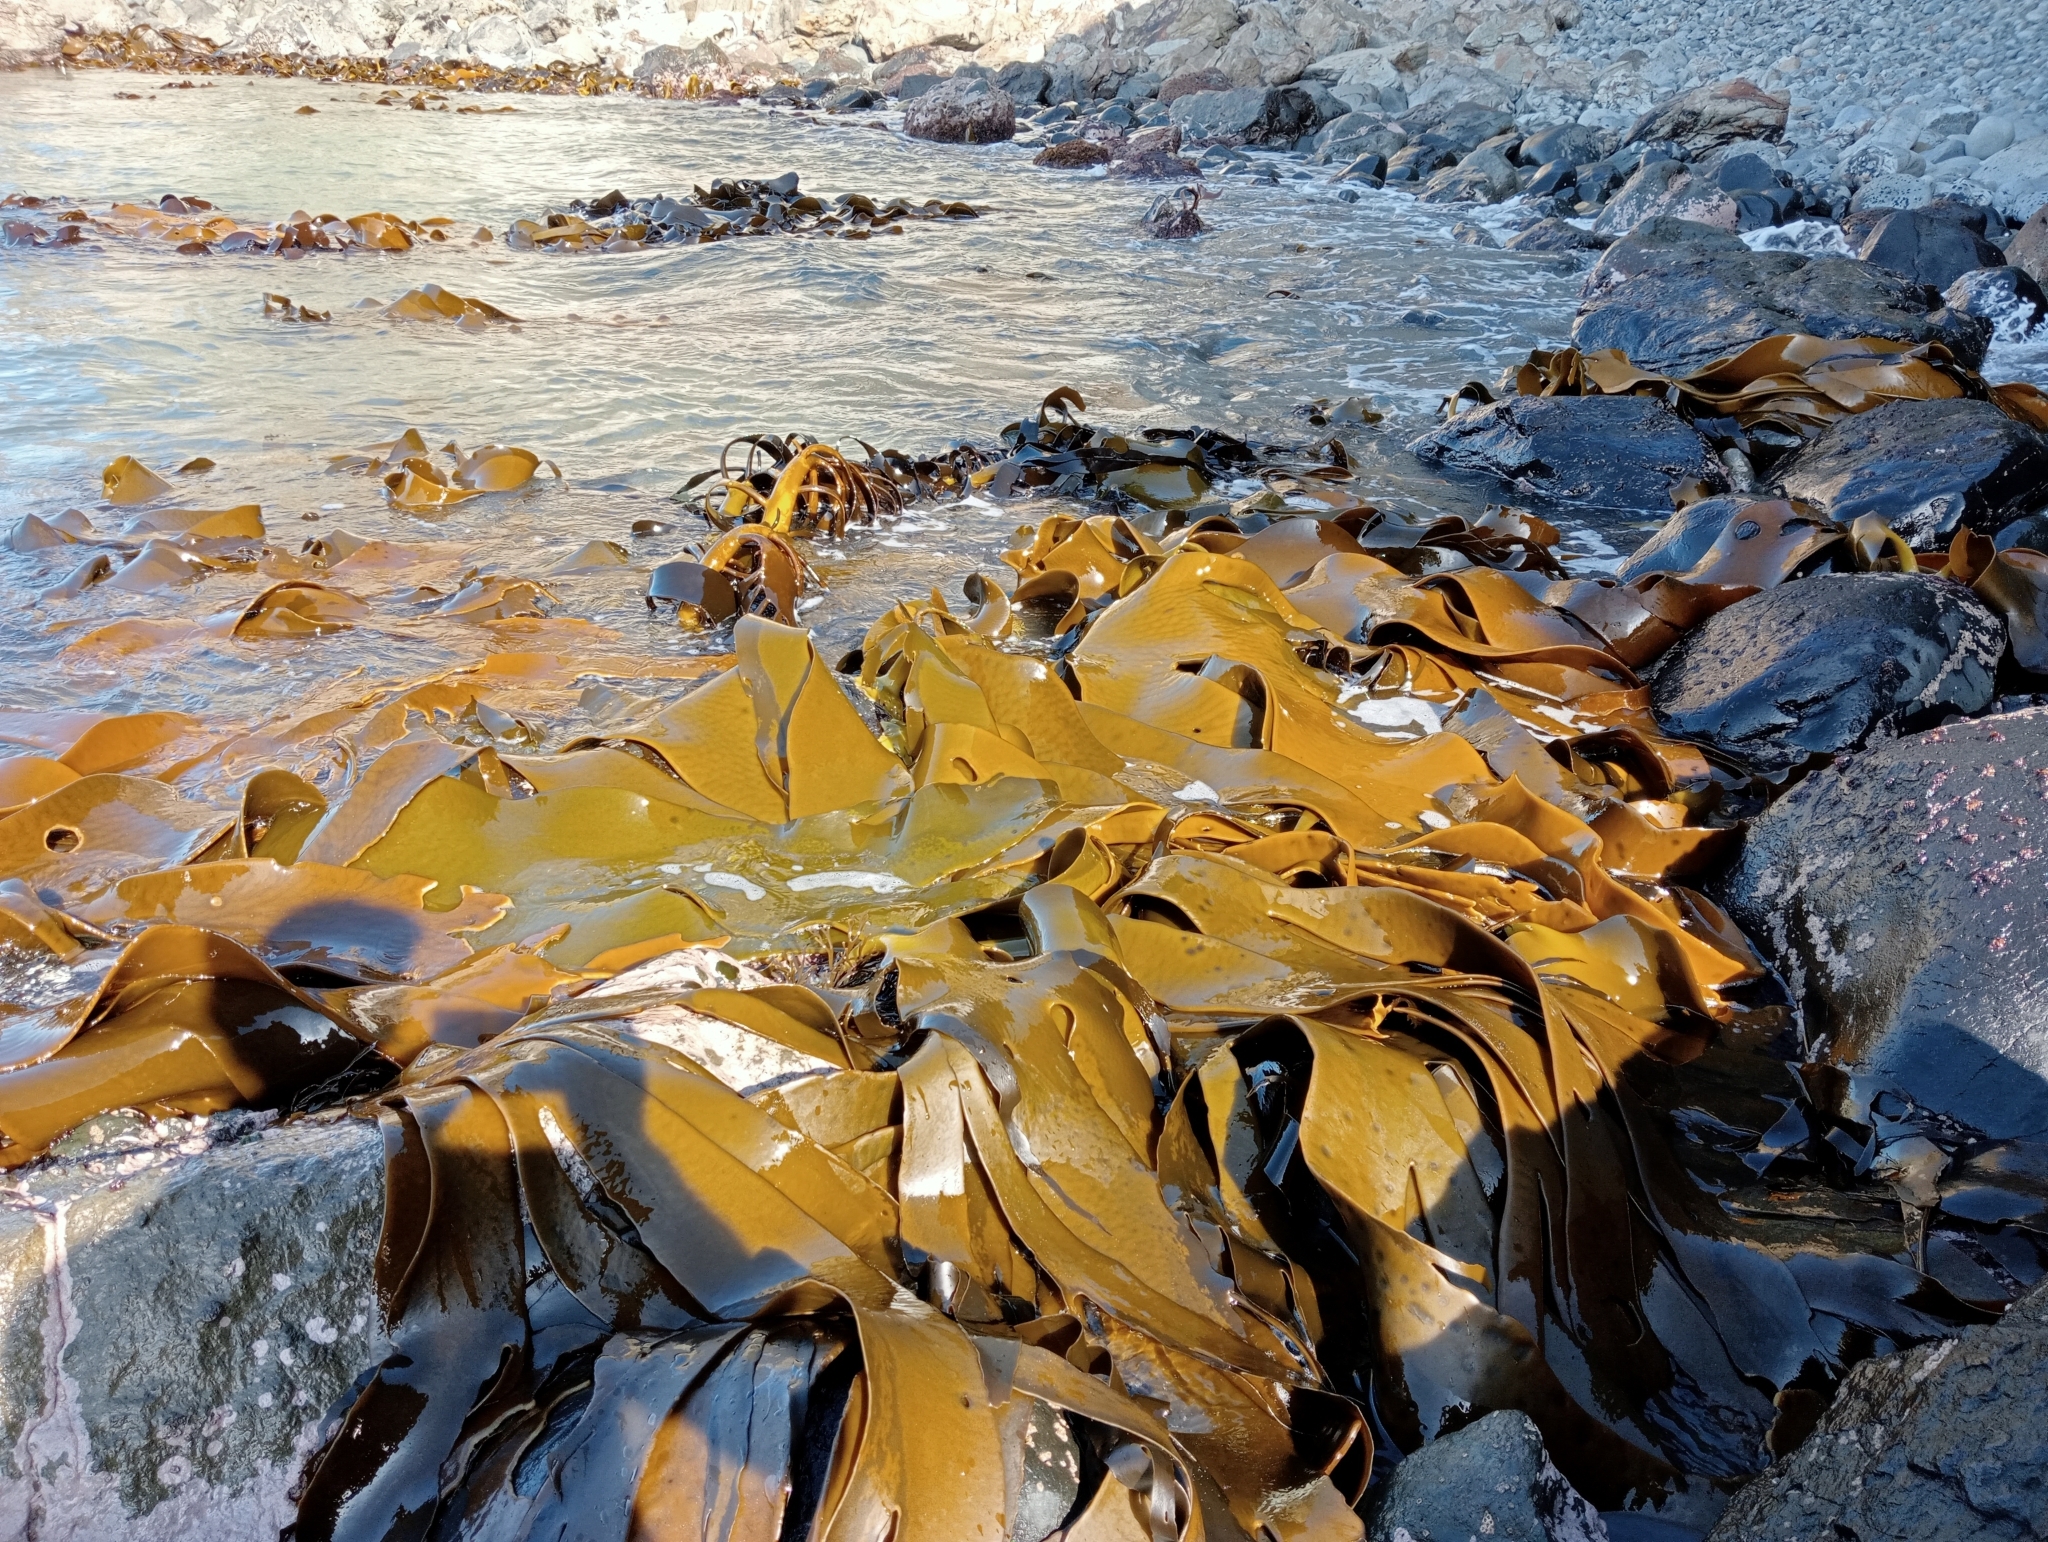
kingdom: Chromista
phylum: Ochrophyta
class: Phaeophyceae
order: Fucales
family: Durvillaeaceae
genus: Durvillaea
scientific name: Durvillaea poha
